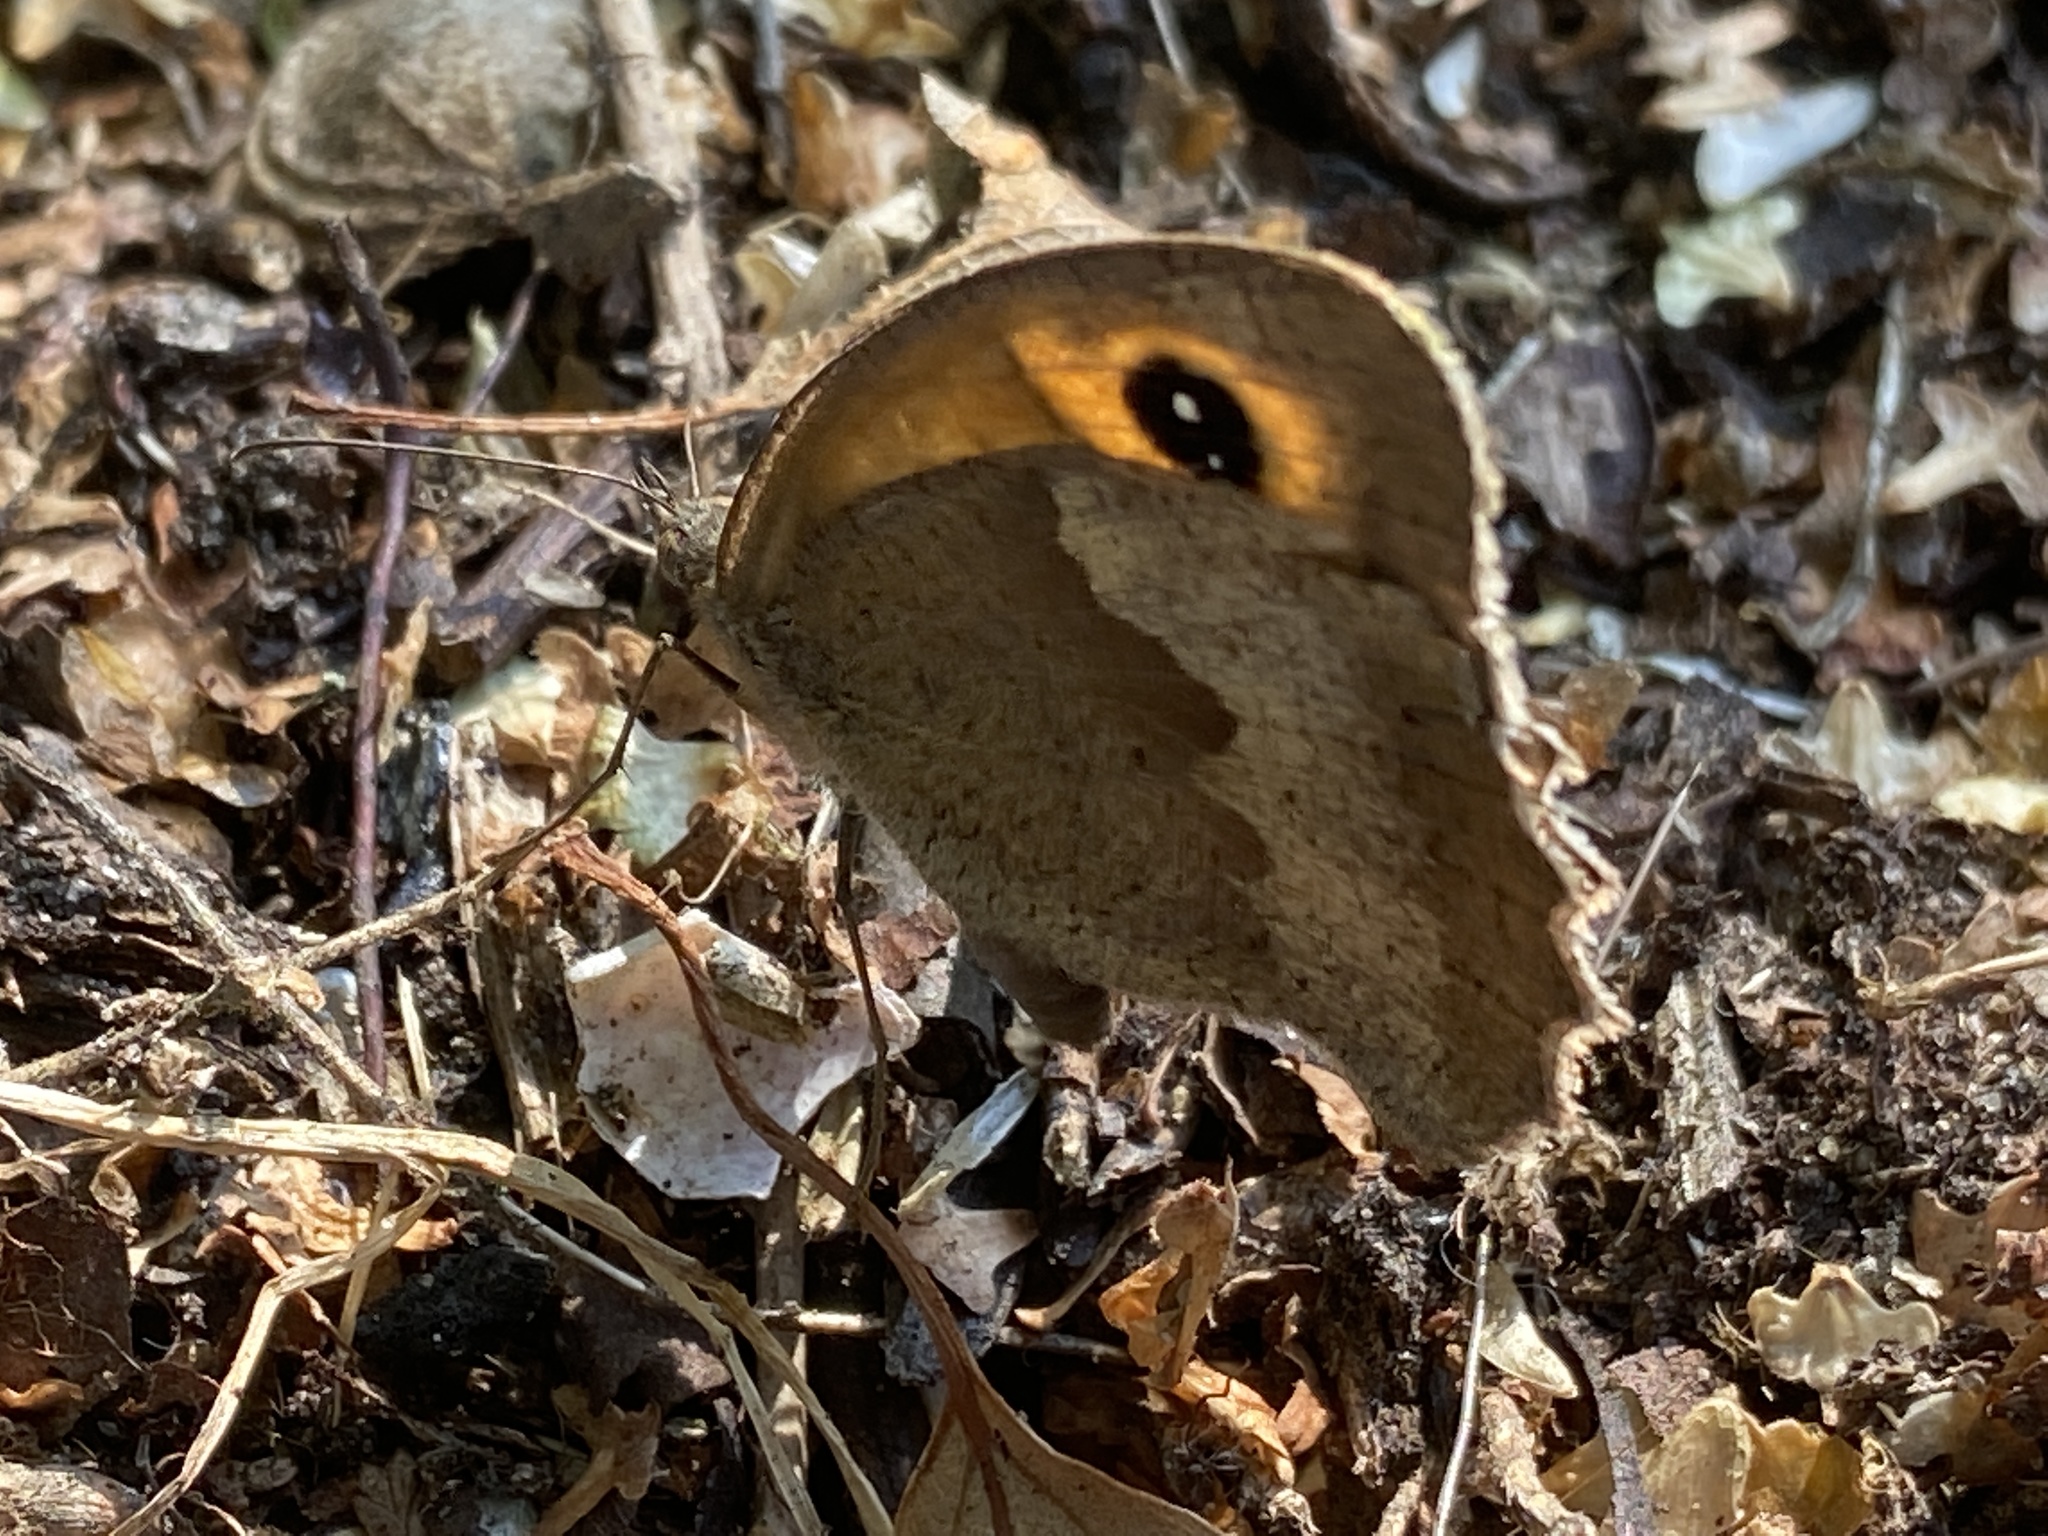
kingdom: Animalia
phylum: Arthropoda
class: Insecta
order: Lepidoptera
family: Nymphalidae
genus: Maniola
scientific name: Maniola jurtina
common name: Meadow brown
